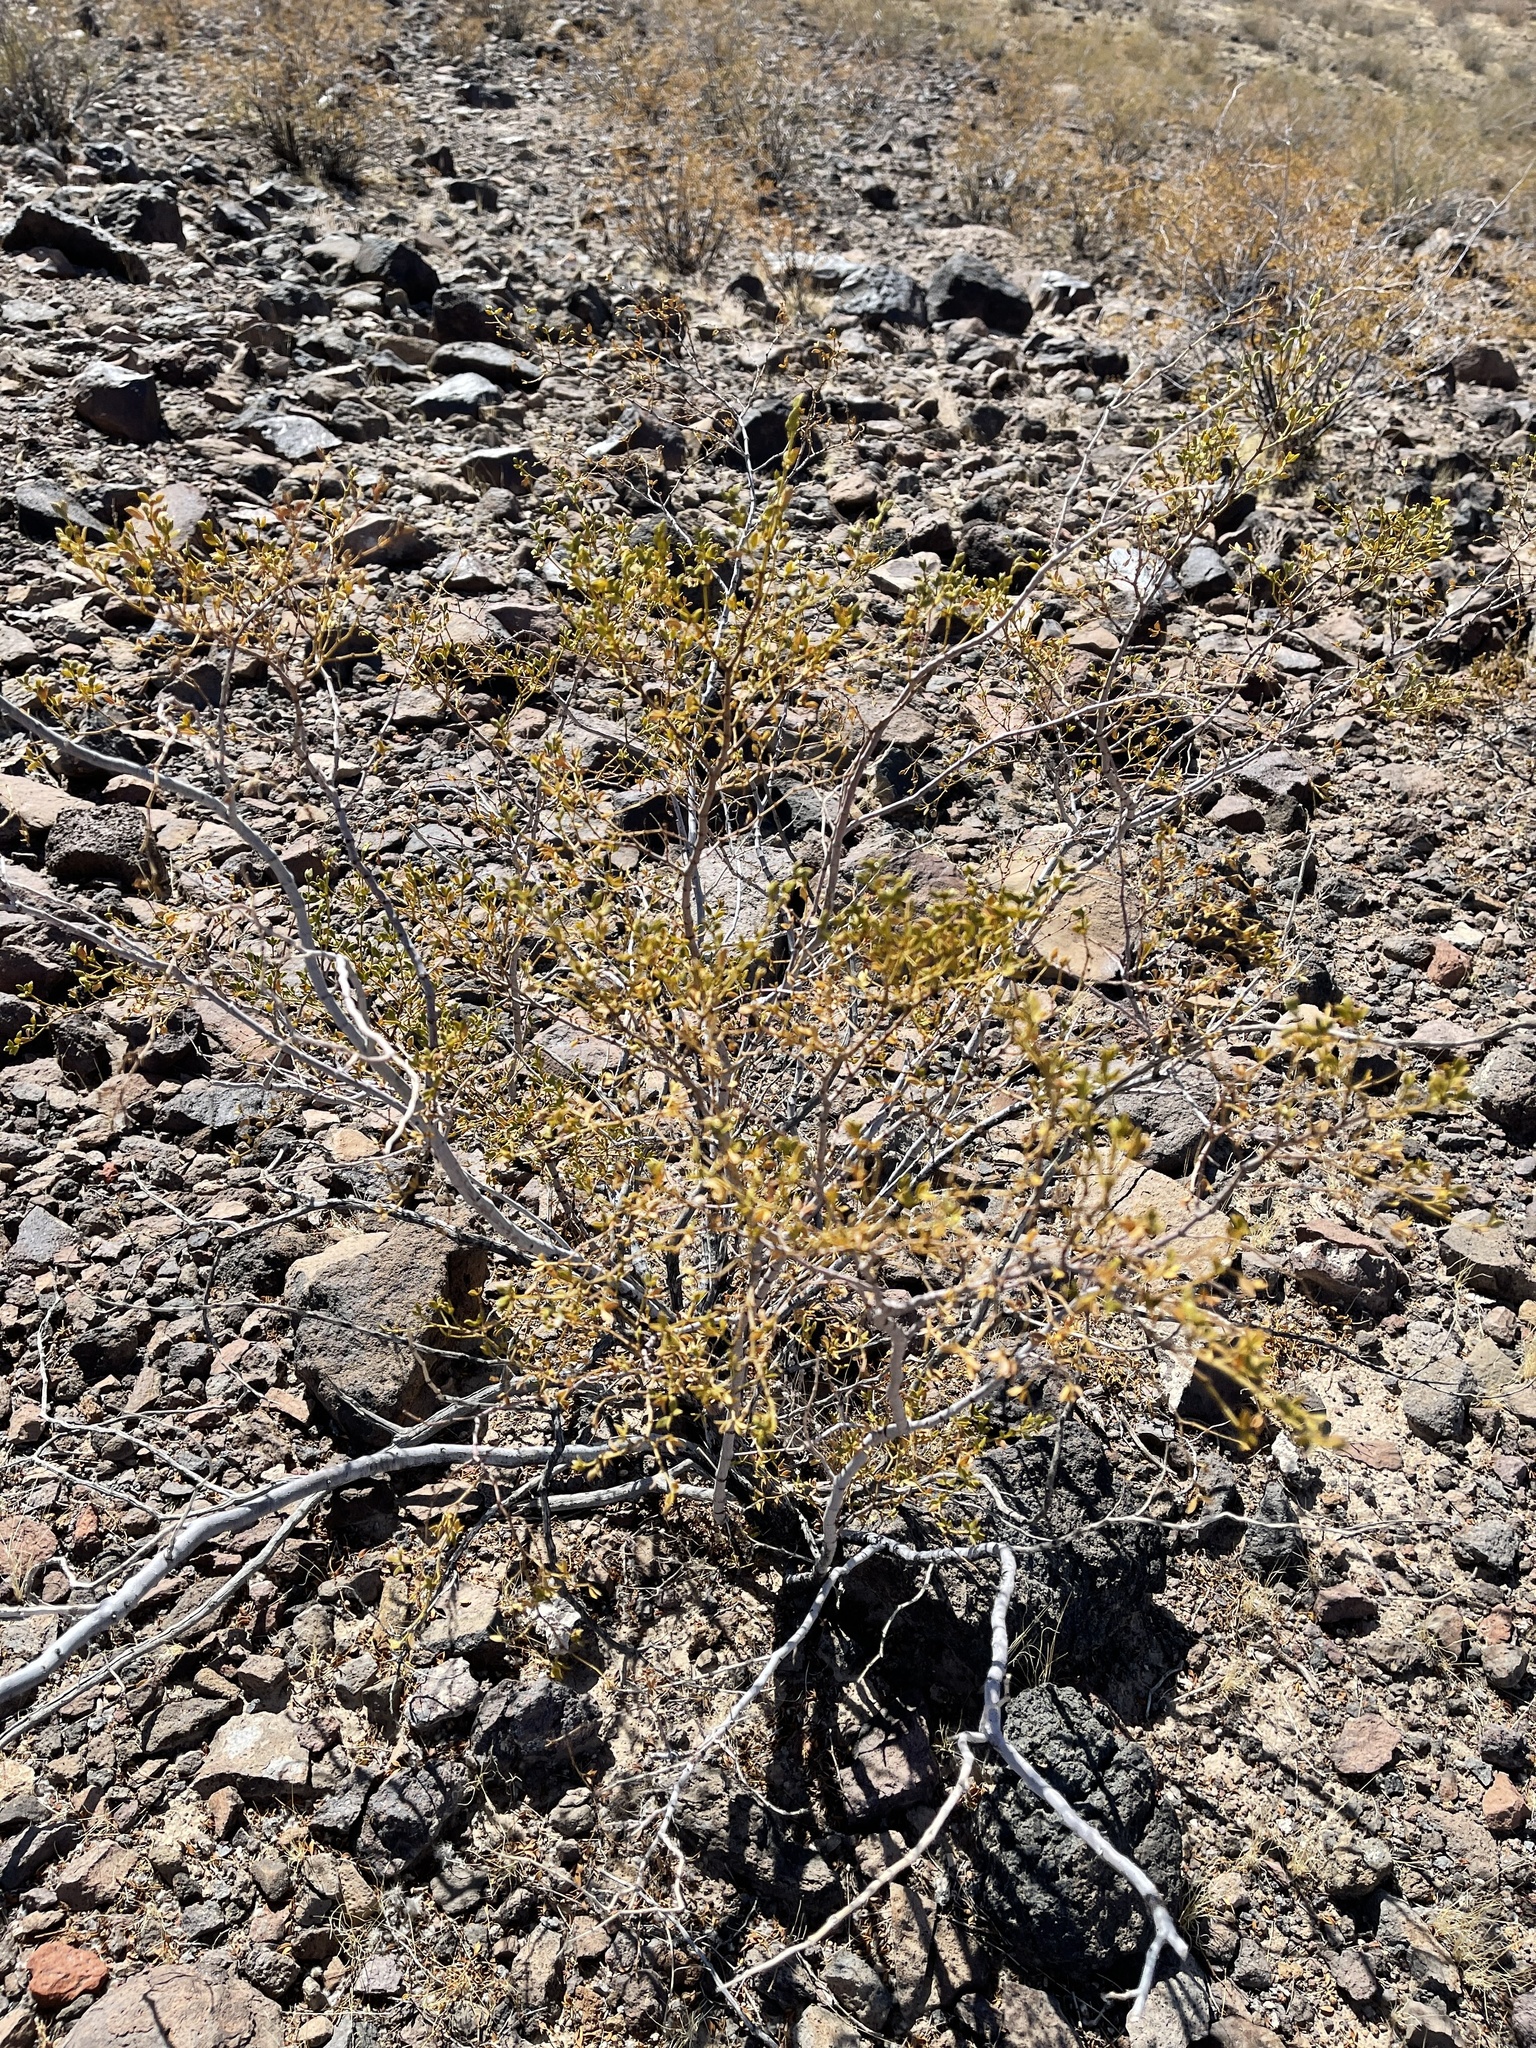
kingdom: Plantae
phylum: Tracheophyta
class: Magnoliopsida
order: Zygophyllales
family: Zygophyllaceae
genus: Larrea
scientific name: Larrea tridentata
